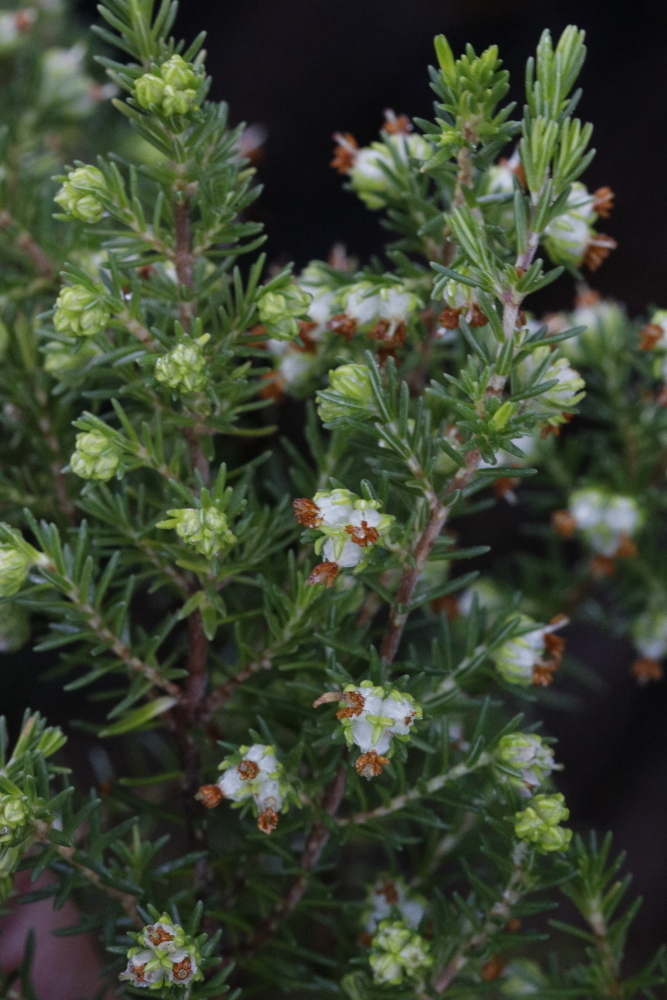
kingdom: Plantae
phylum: Tracheophyta
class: Magnoliopsida
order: Ericales
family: Ericaceae
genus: Erica
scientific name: Erica glumiflora
